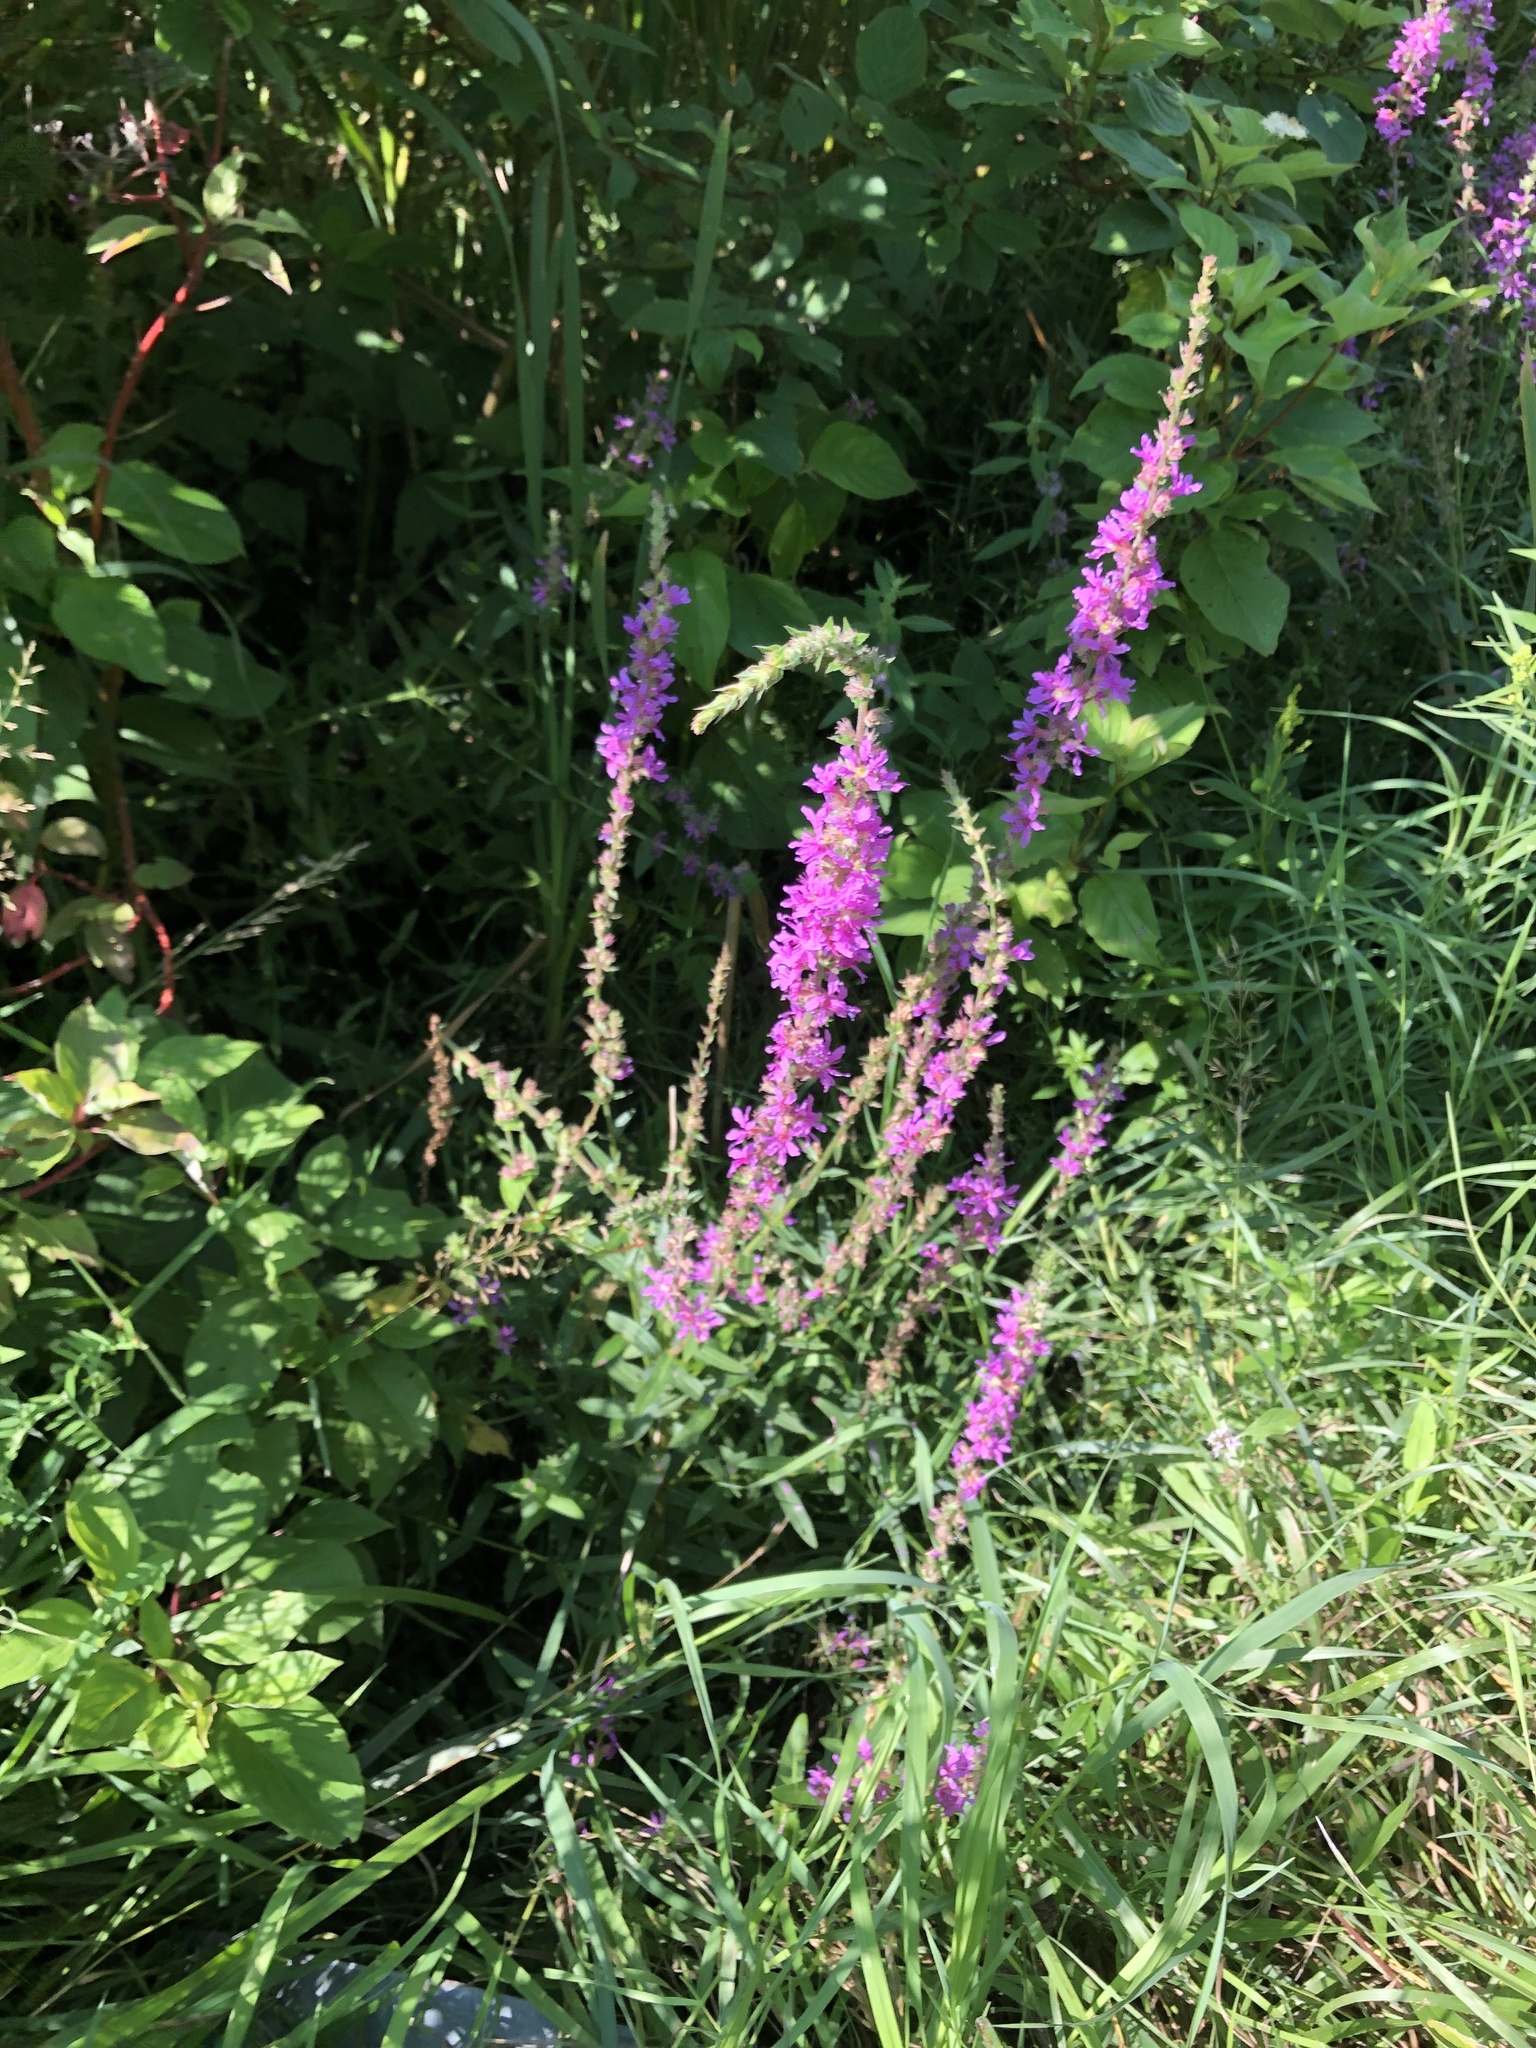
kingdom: Plantae
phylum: Tracheophyta
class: Magnoliopsida
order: Myrtales
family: Lythraceae
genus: Lythrum
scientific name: Lythrum salicaria
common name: Purple loosestrife
